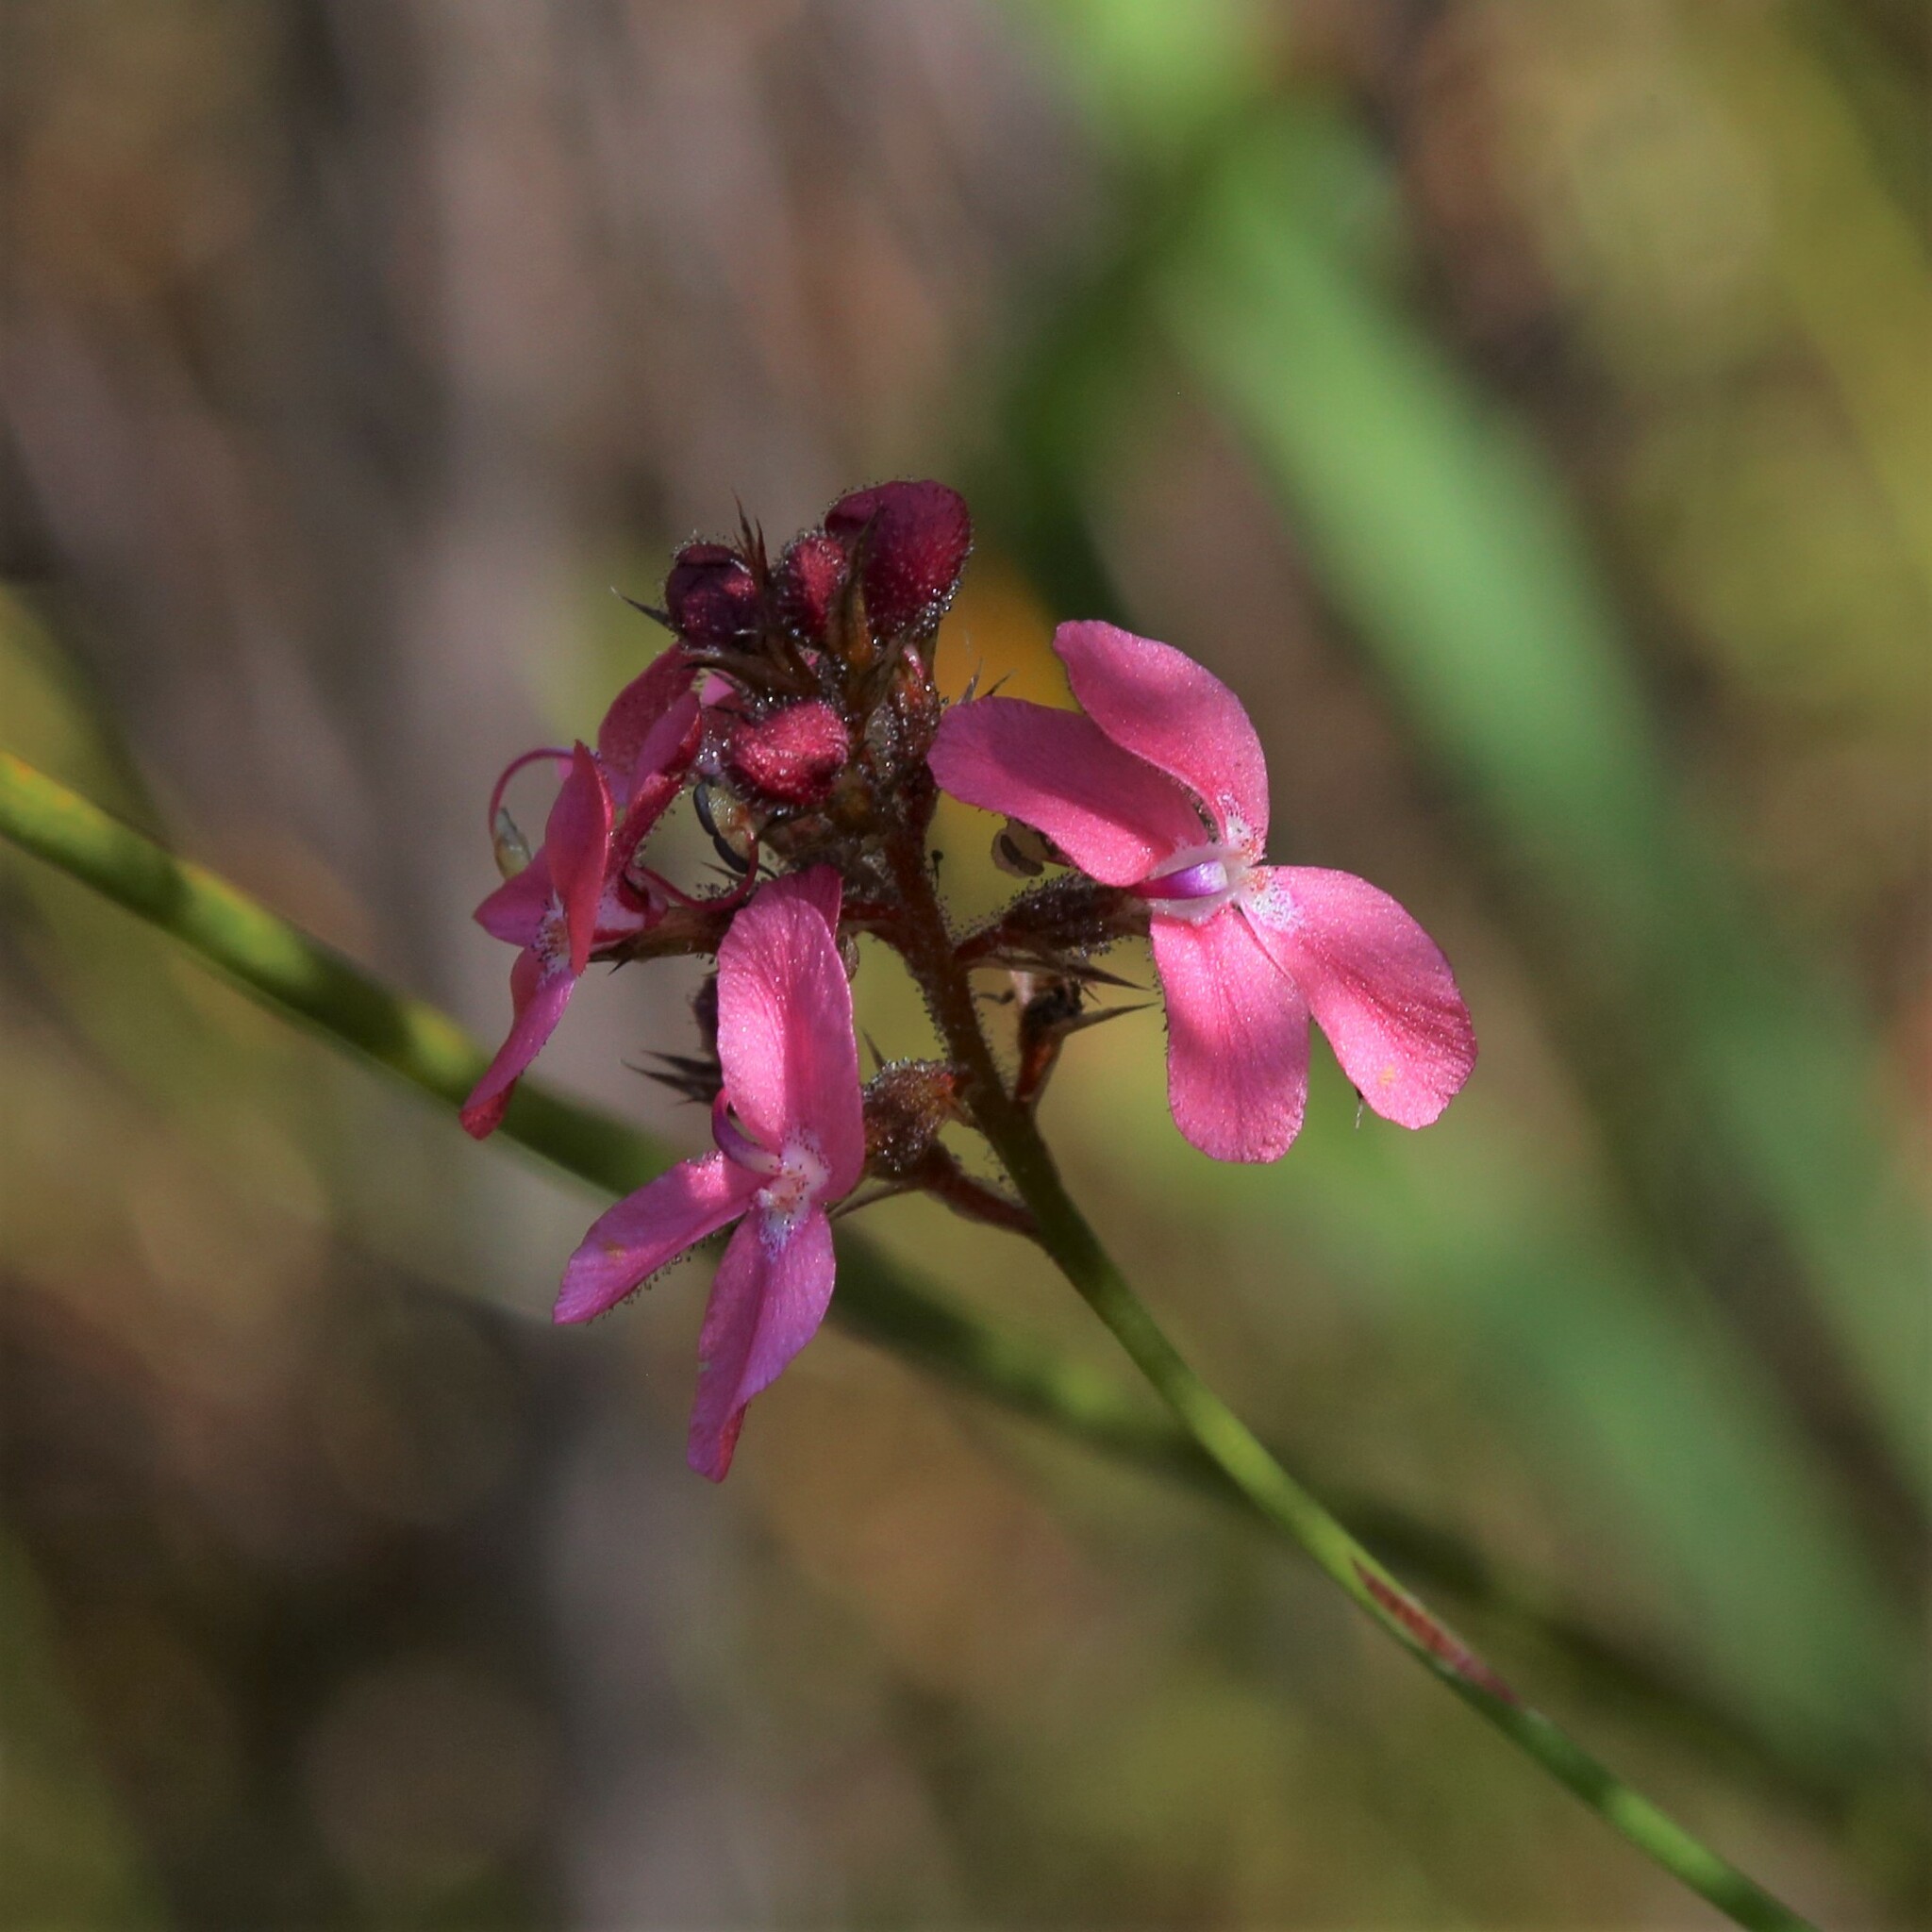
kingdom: Plantae
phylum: Tracheophyta
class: Magnoliopsida
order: Asterales
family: Stylidiaceae
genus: Stylidium
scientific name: Stylidium squamosotuberosum
